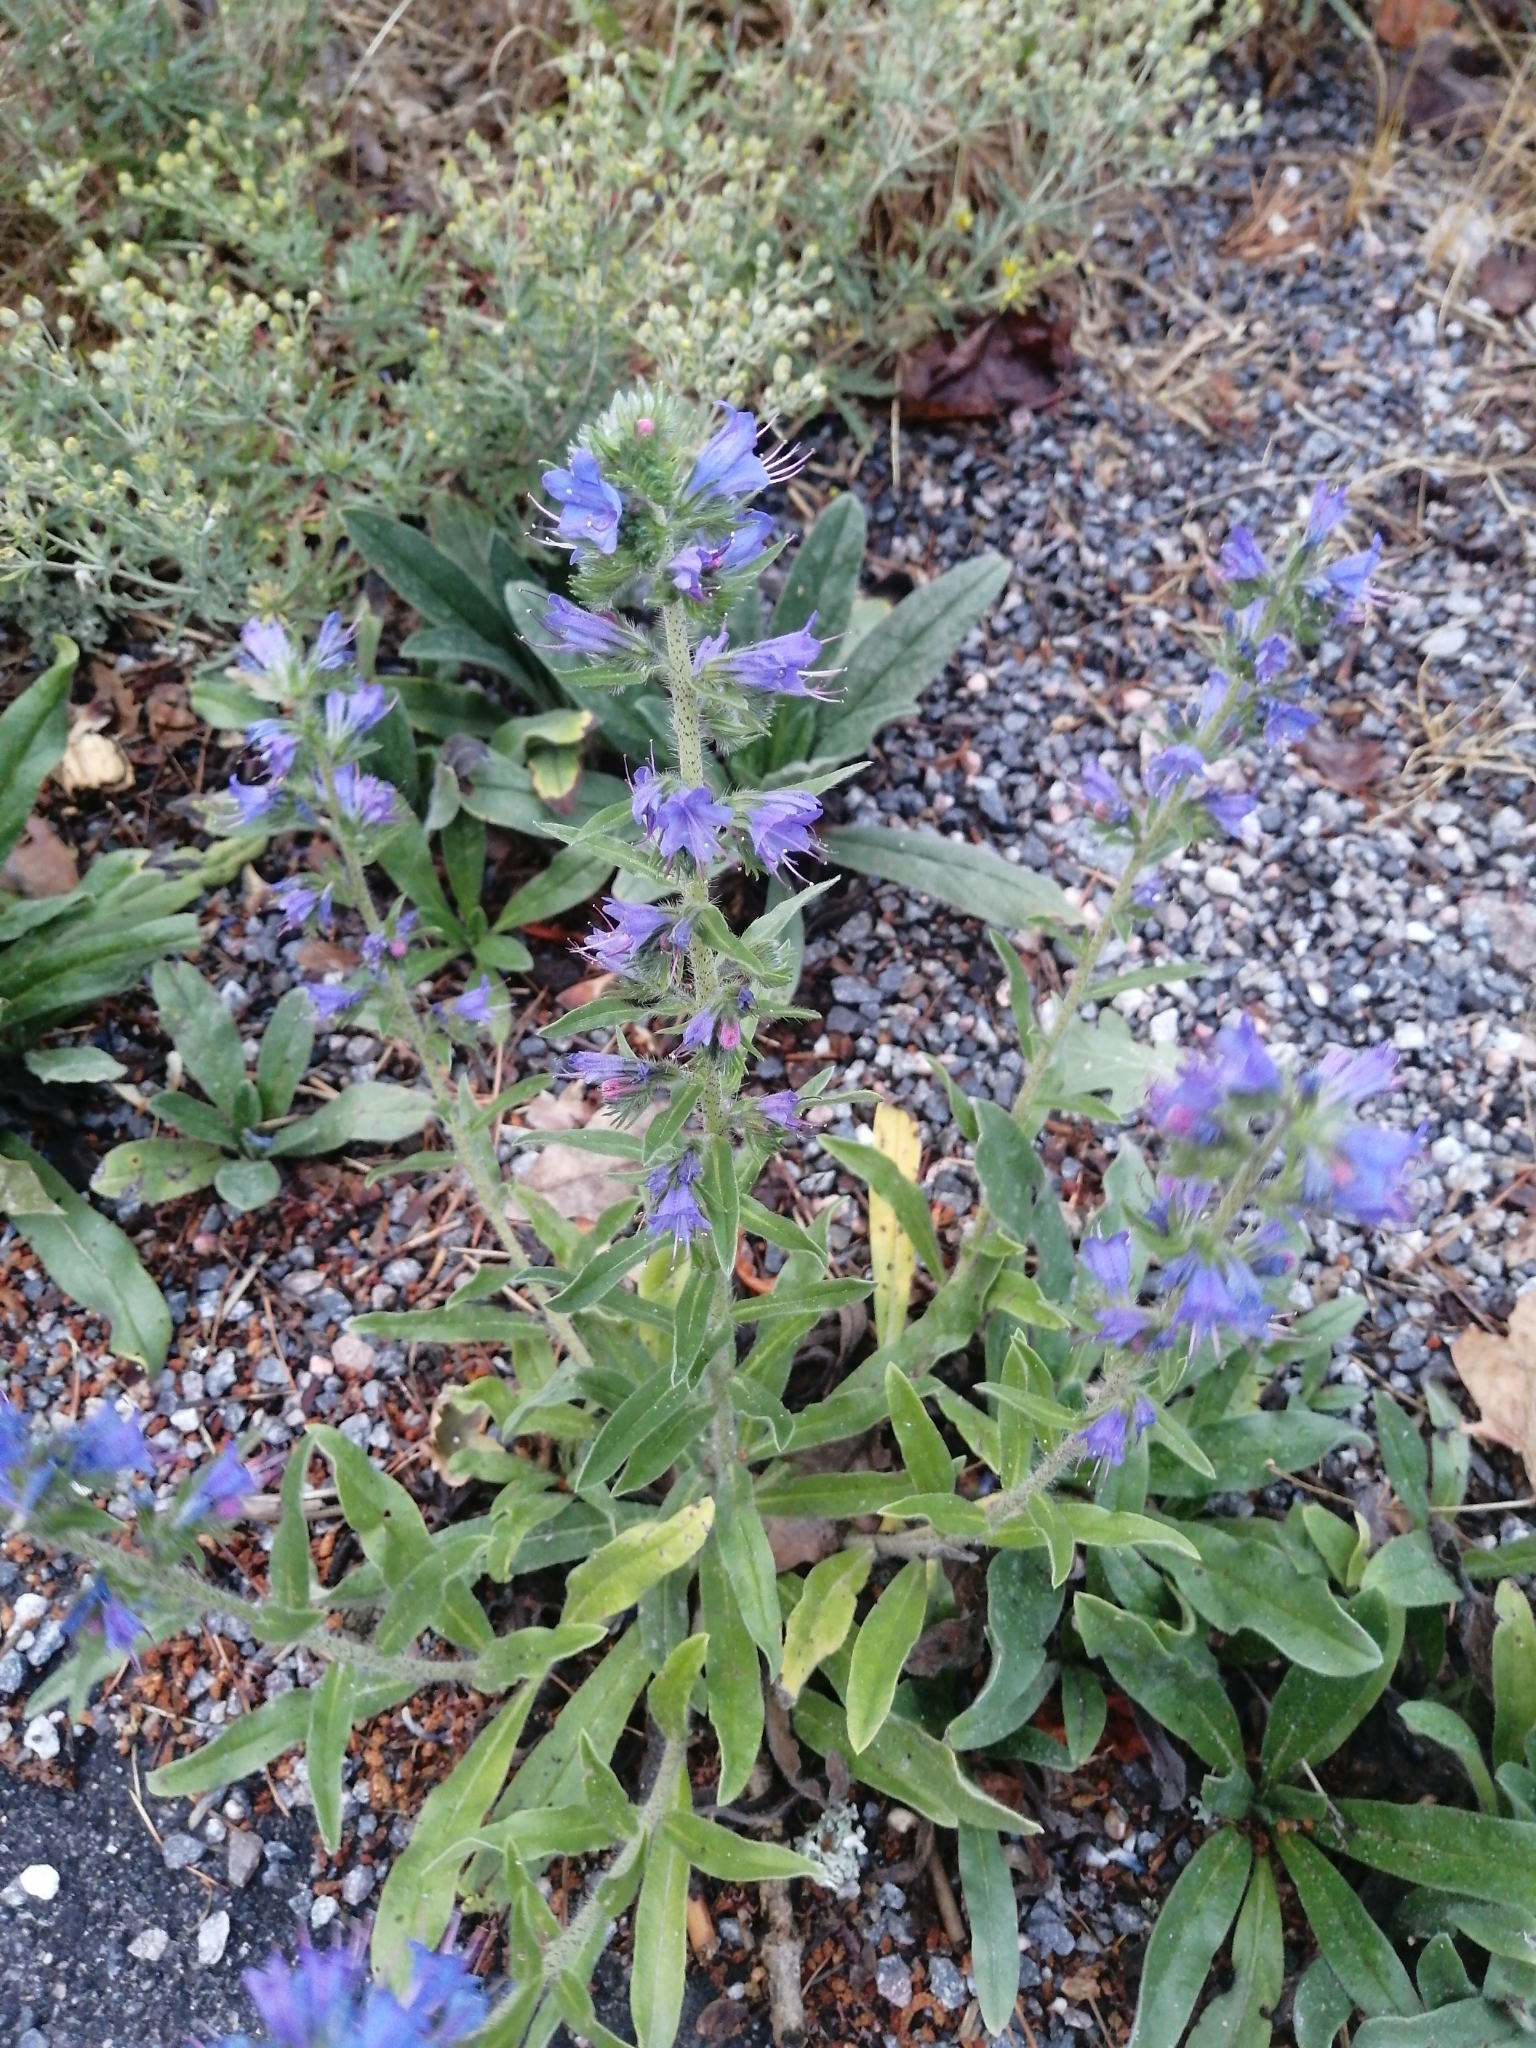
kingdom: Plantae
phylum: Tracheophyta
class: Magnoliopsida
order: Boraginales
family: Boraginaceae
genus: Echium
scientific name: Echium vulgare
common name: Common viper's bugloss
